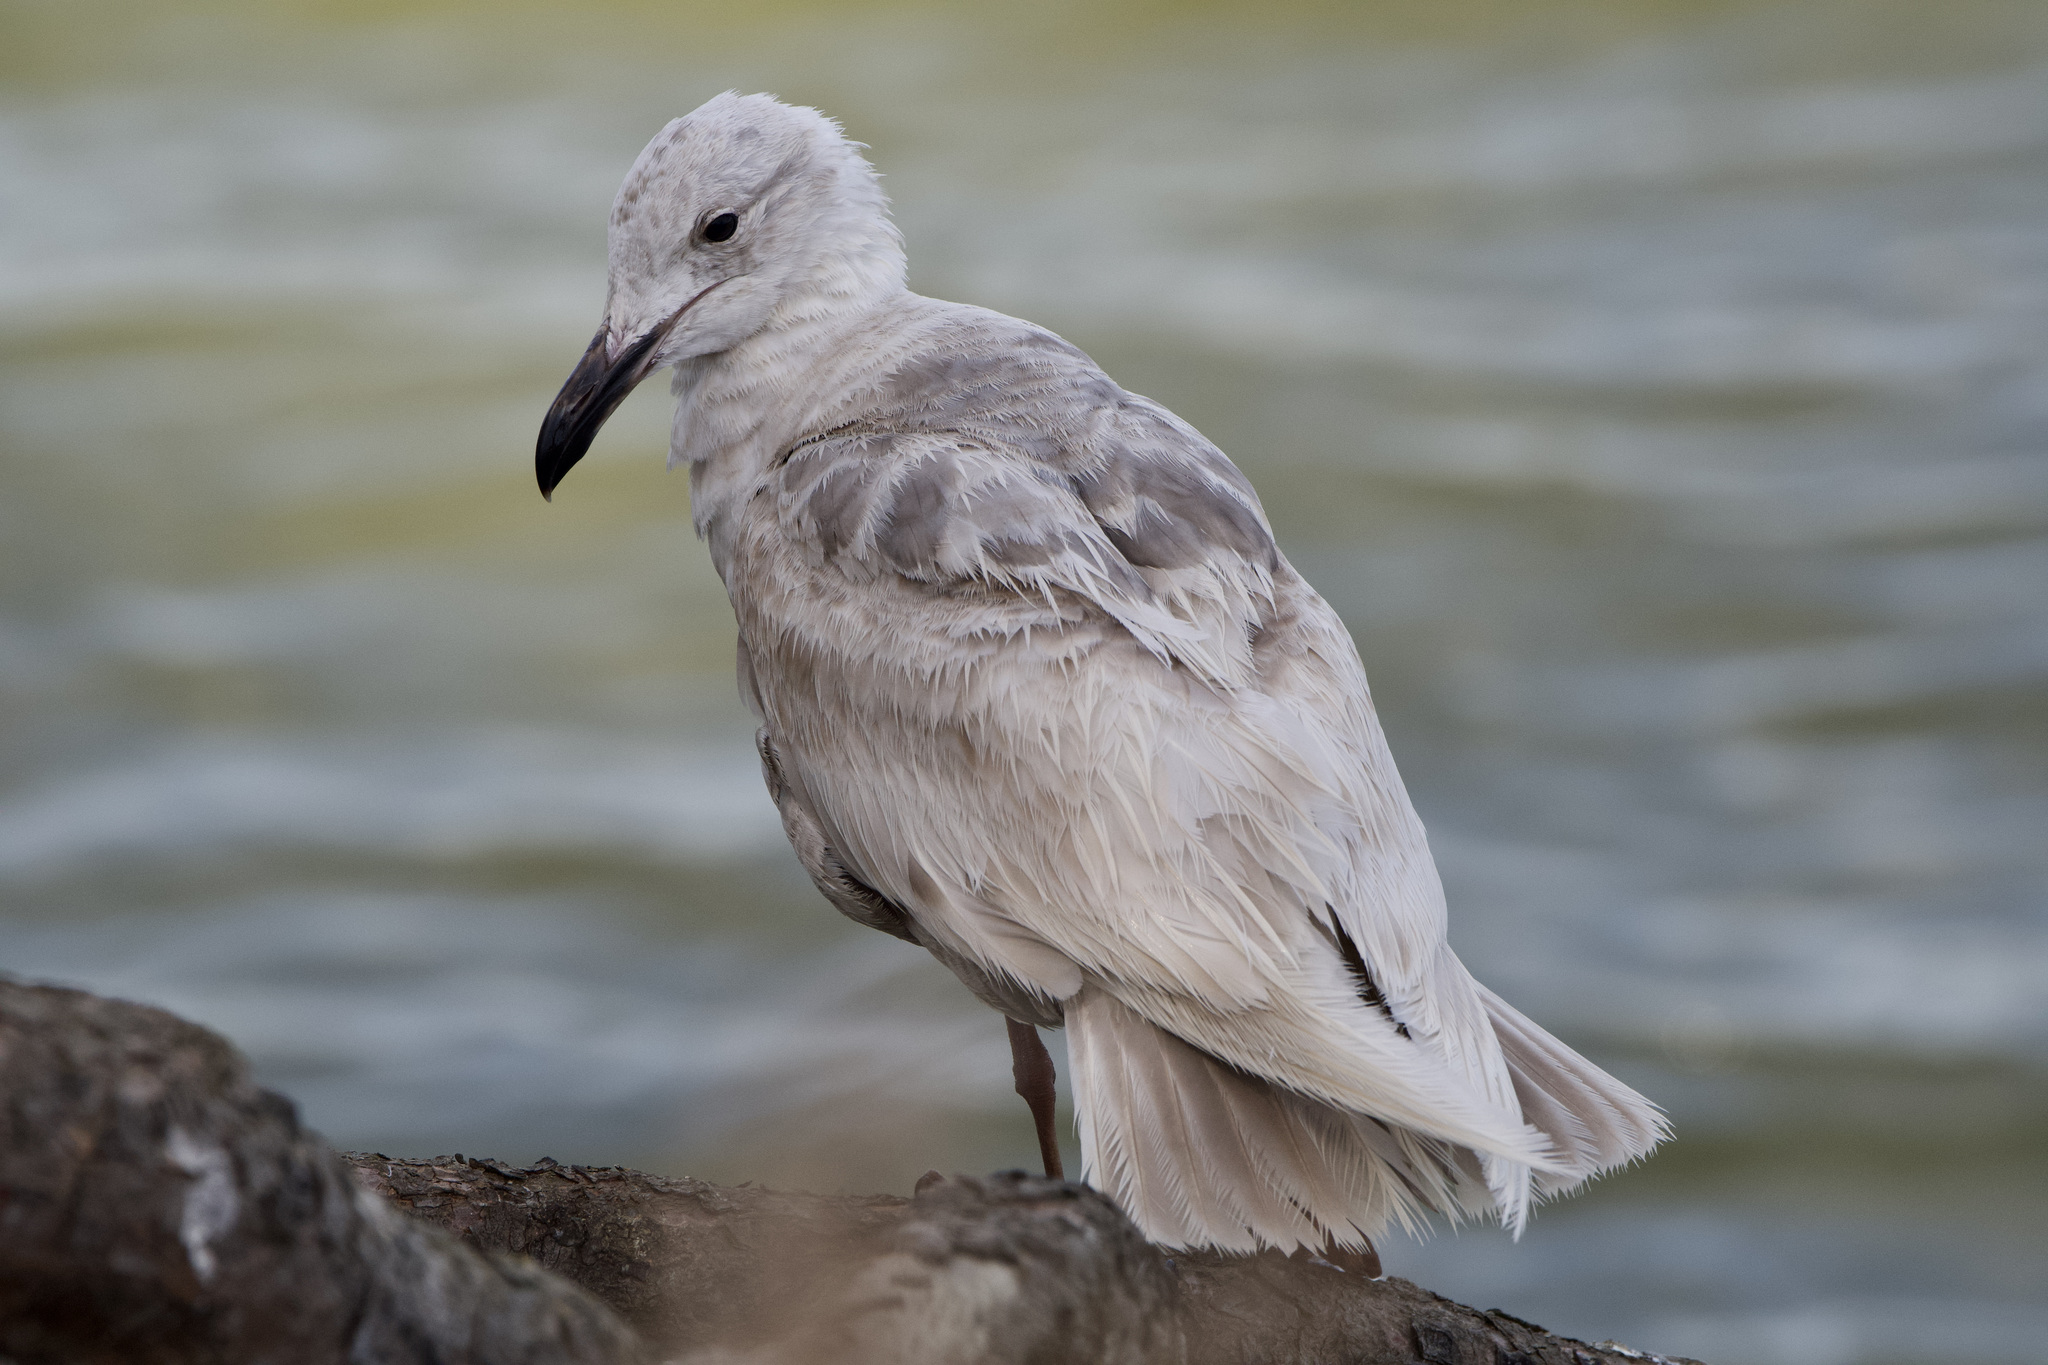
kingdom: Animalia
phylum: Chordata
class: Aves
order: Charadriiformes
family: Laridae
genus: Larus
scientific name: Larus glaucescens
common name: Glaucous-winged gull
